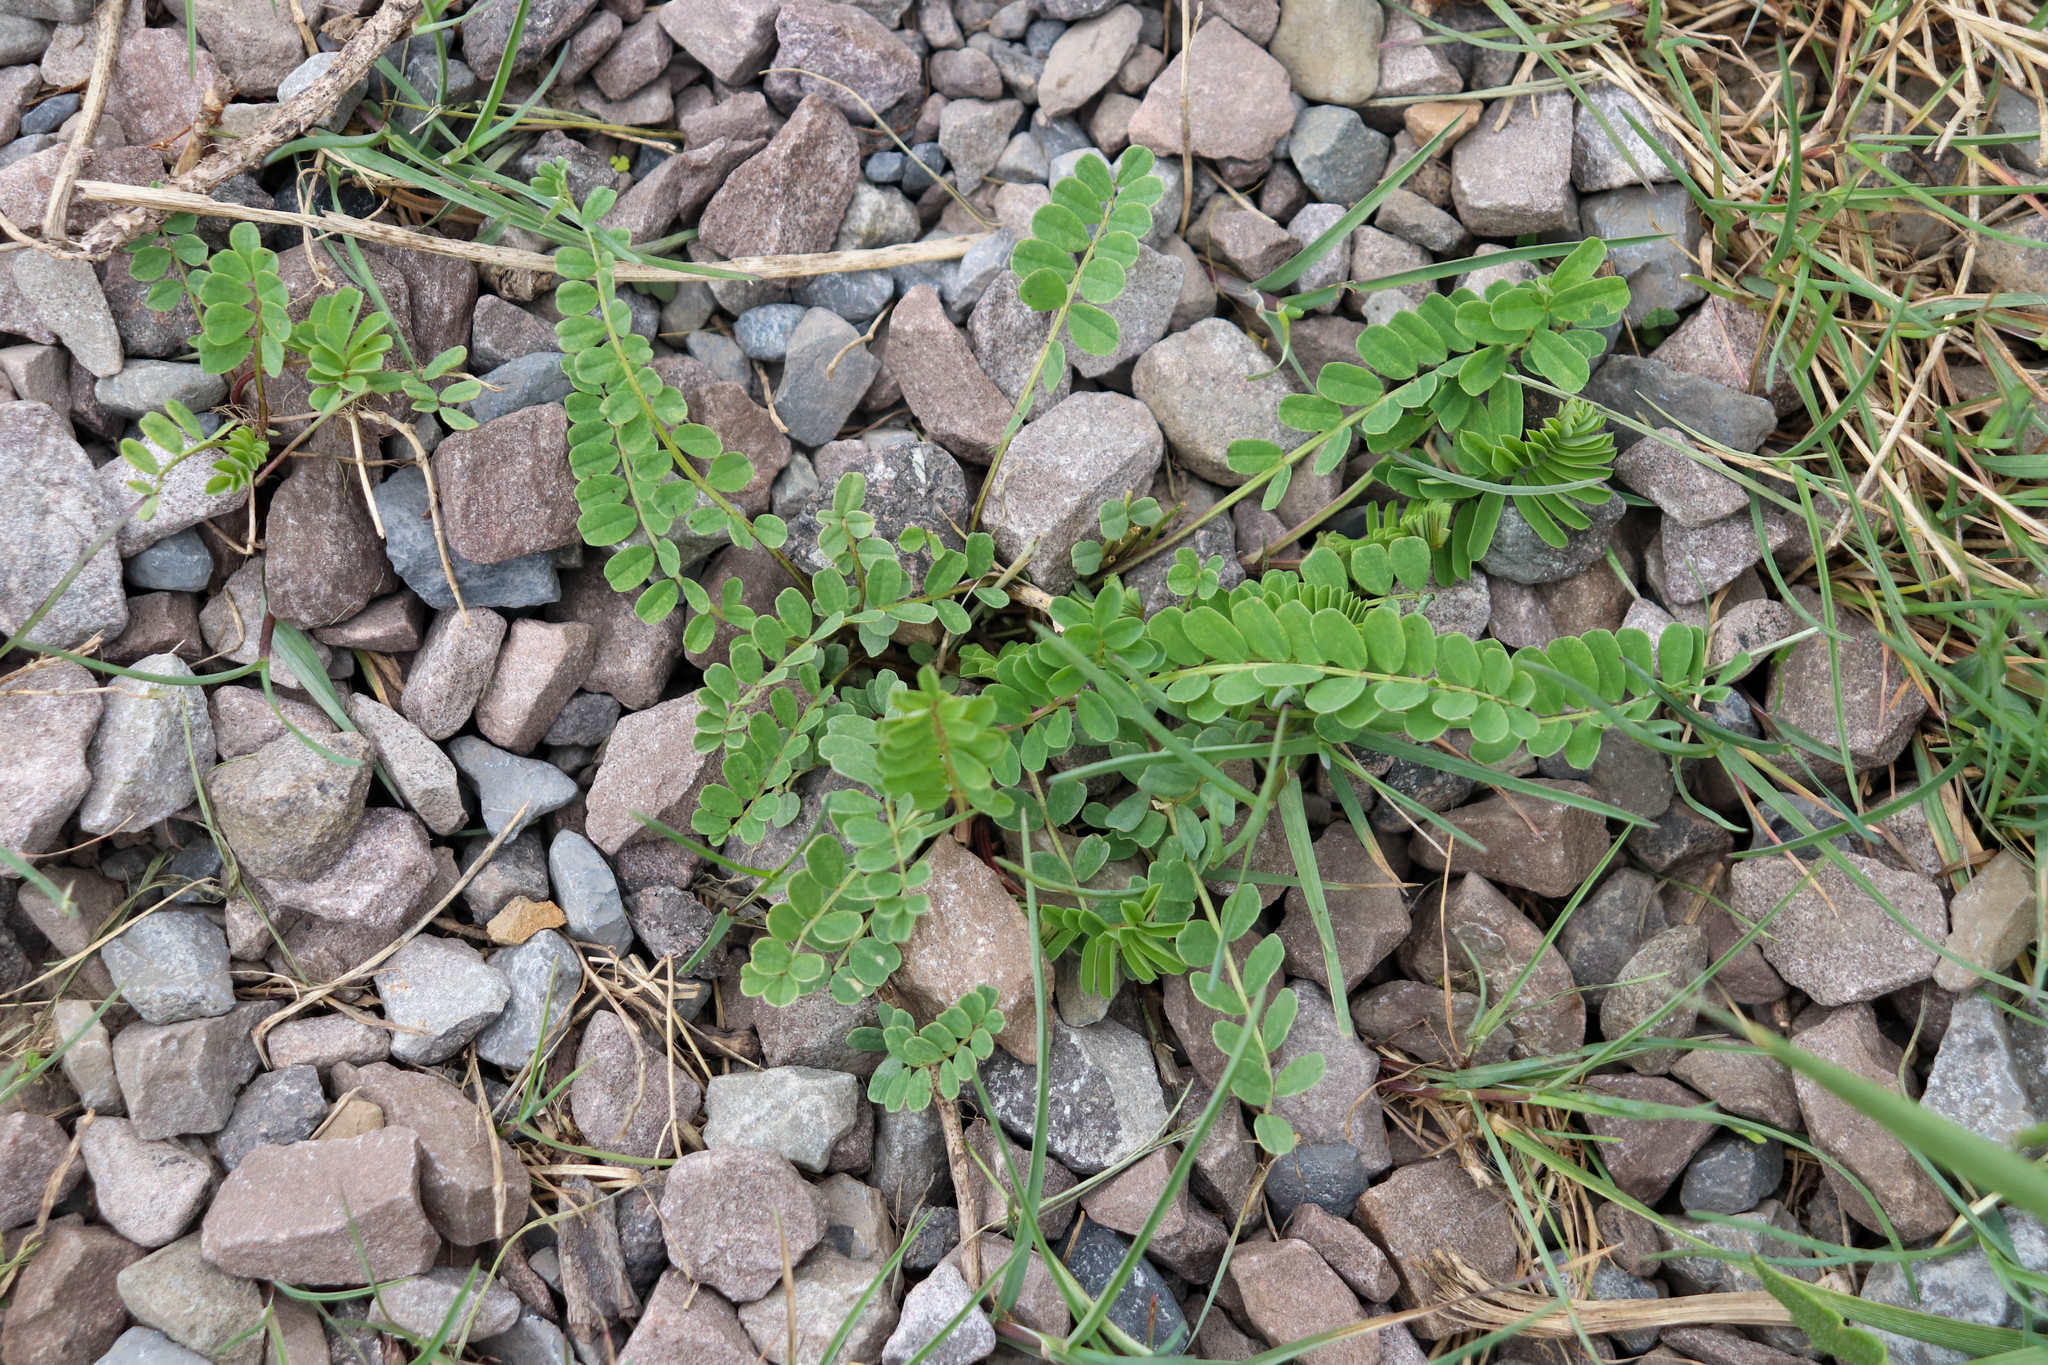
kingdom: Plantae
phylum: Tracheophyta
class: Magnoliopsida
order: Fabales
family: Fabaceae
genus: Coronilla
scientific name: Coronilla varia
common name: Crownvetch
